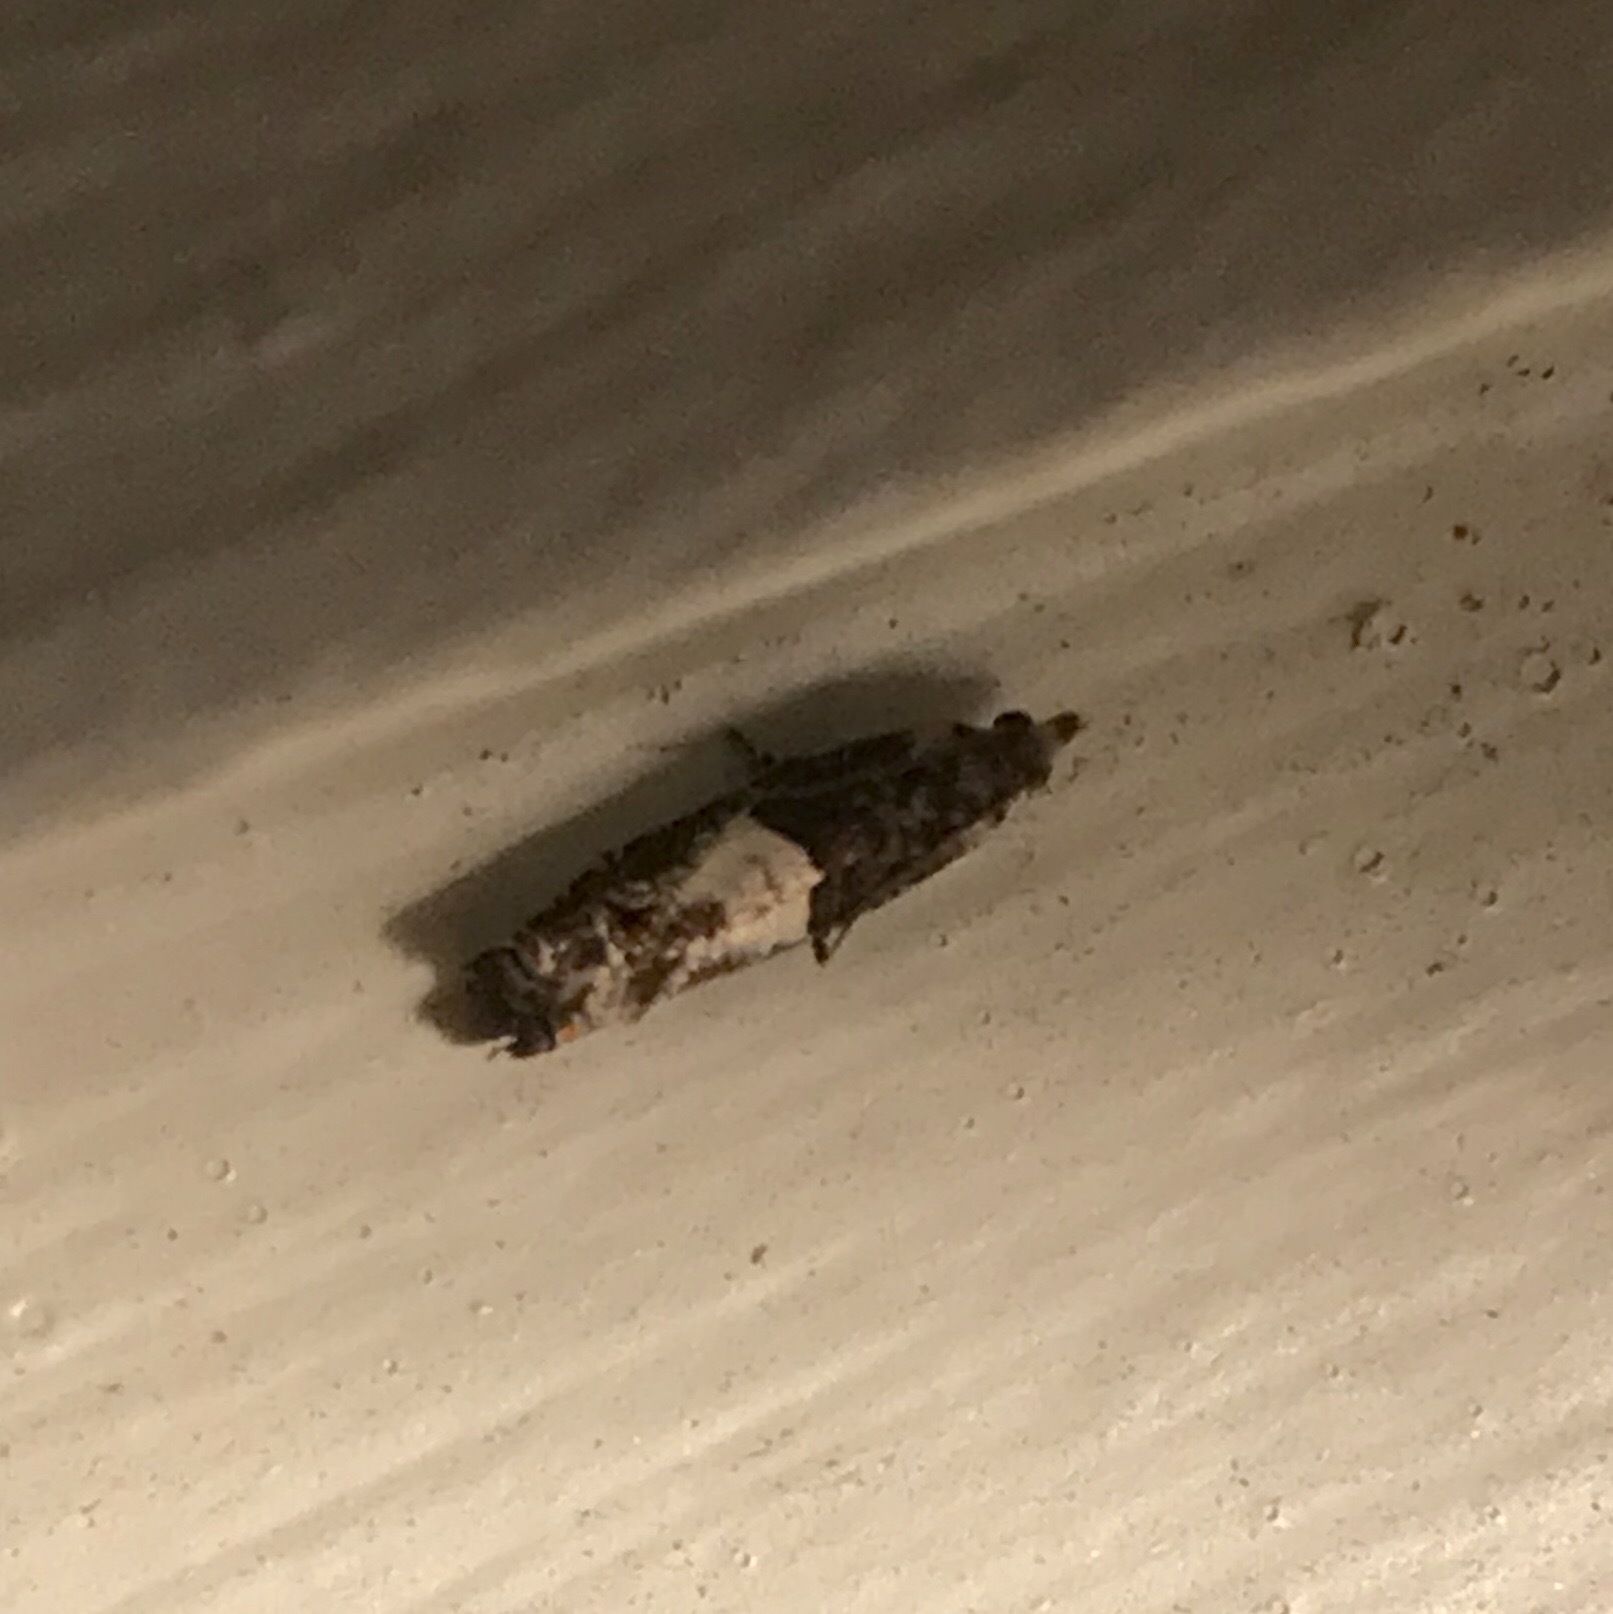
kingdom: Animalia
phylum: Arthropoda
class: Insecta
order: Lepidoptera
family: Tortricidae
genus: Epinotia
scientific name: Epinotia transmissana
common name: Walker's epinotia moth
